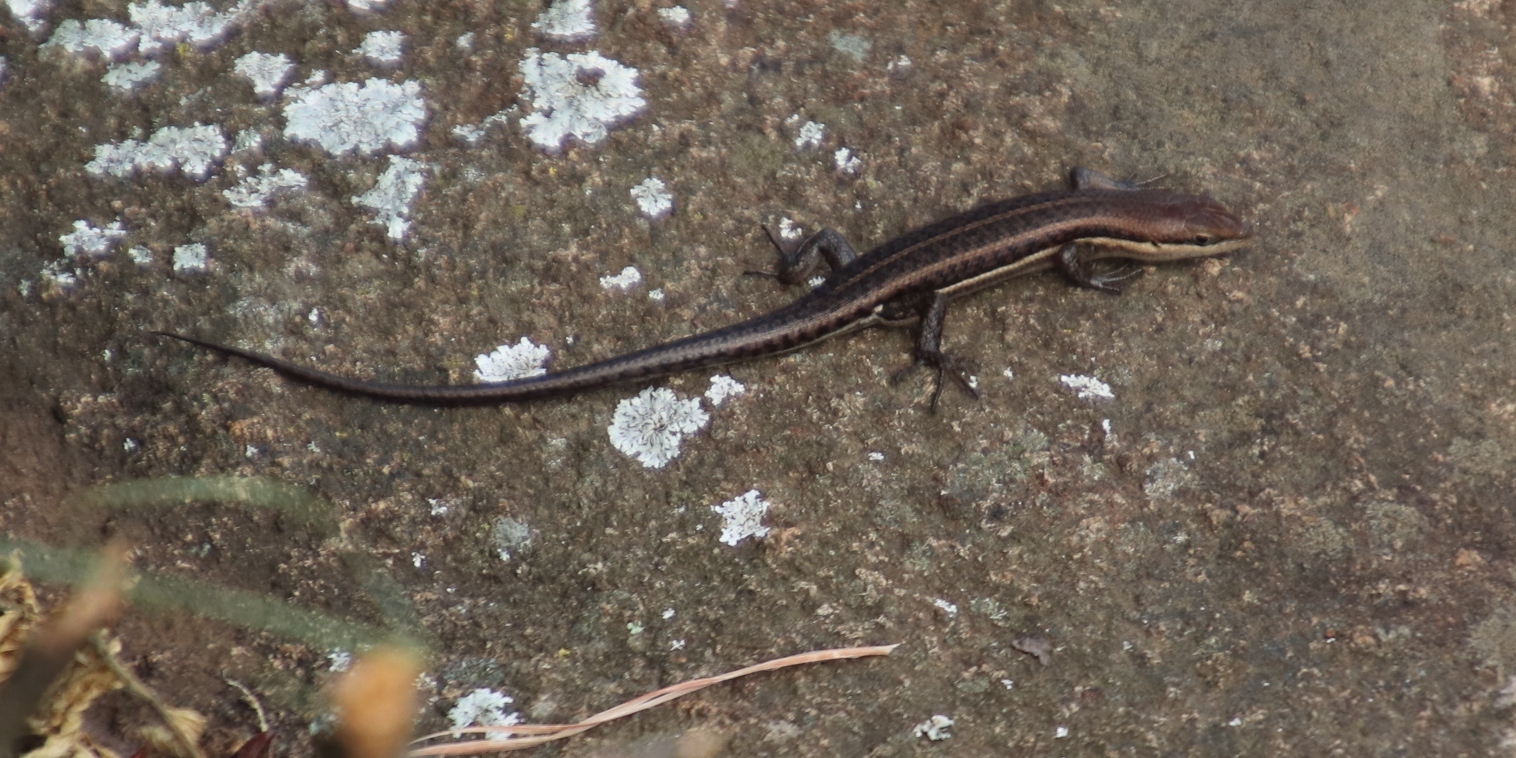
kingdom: Animalia
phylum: Chordata
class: Squamata
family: Scincidae
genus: Trachylepis
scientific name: Trachylepis varia
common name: Eastern variable skink
